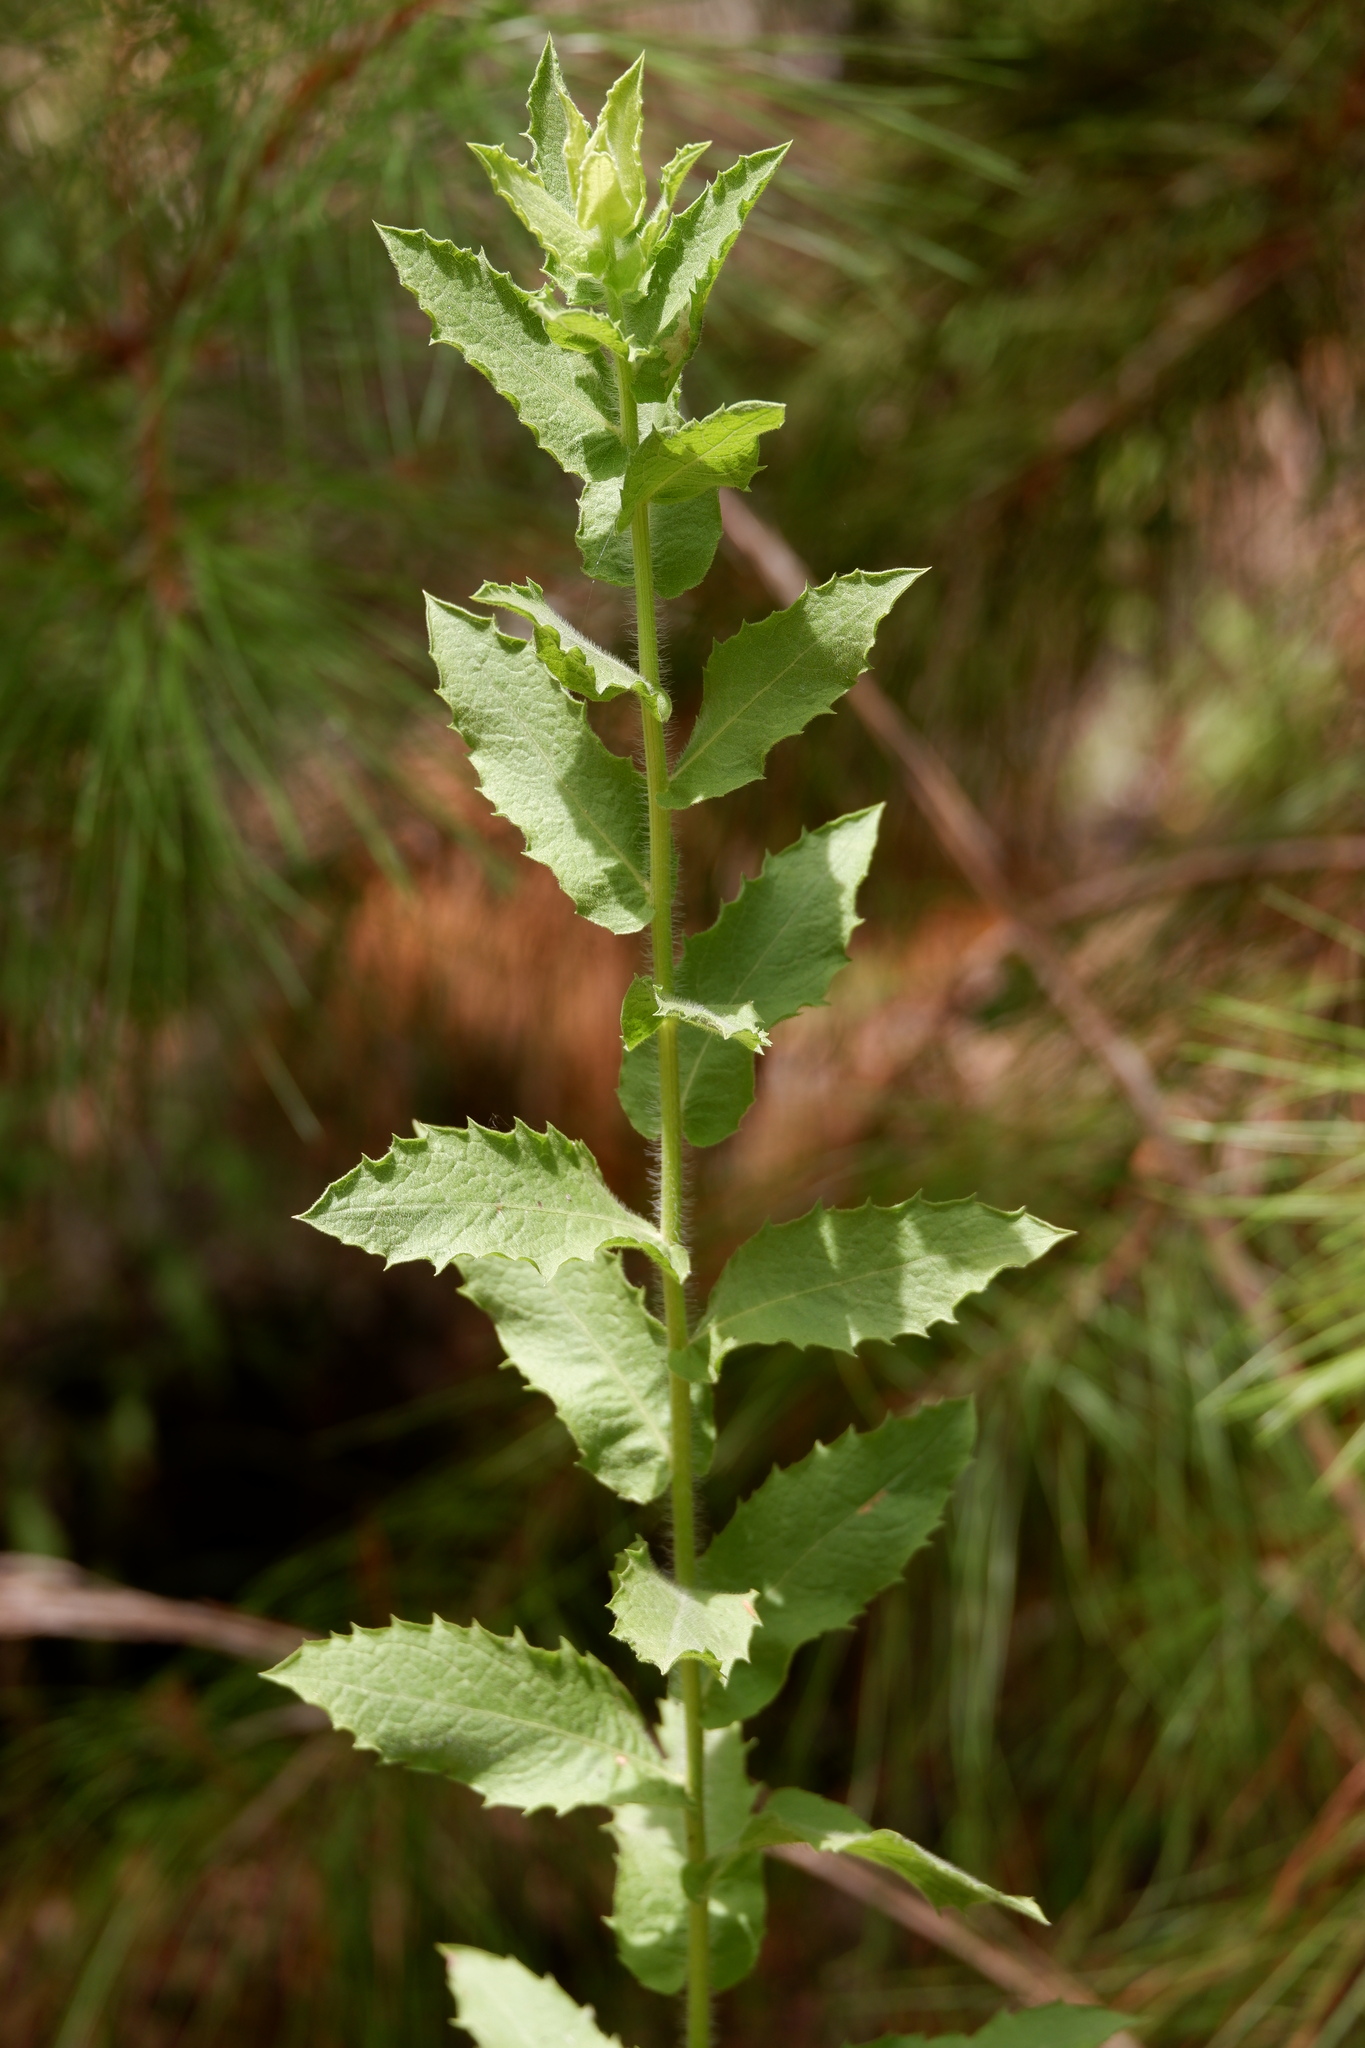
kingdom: Plantae
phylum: Tracheophyta
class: Magnoliopsida
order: Asterales
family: Asteraceae
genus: Heterotheca
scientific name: Heterotheca subaxillaris
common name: Camphorweed
